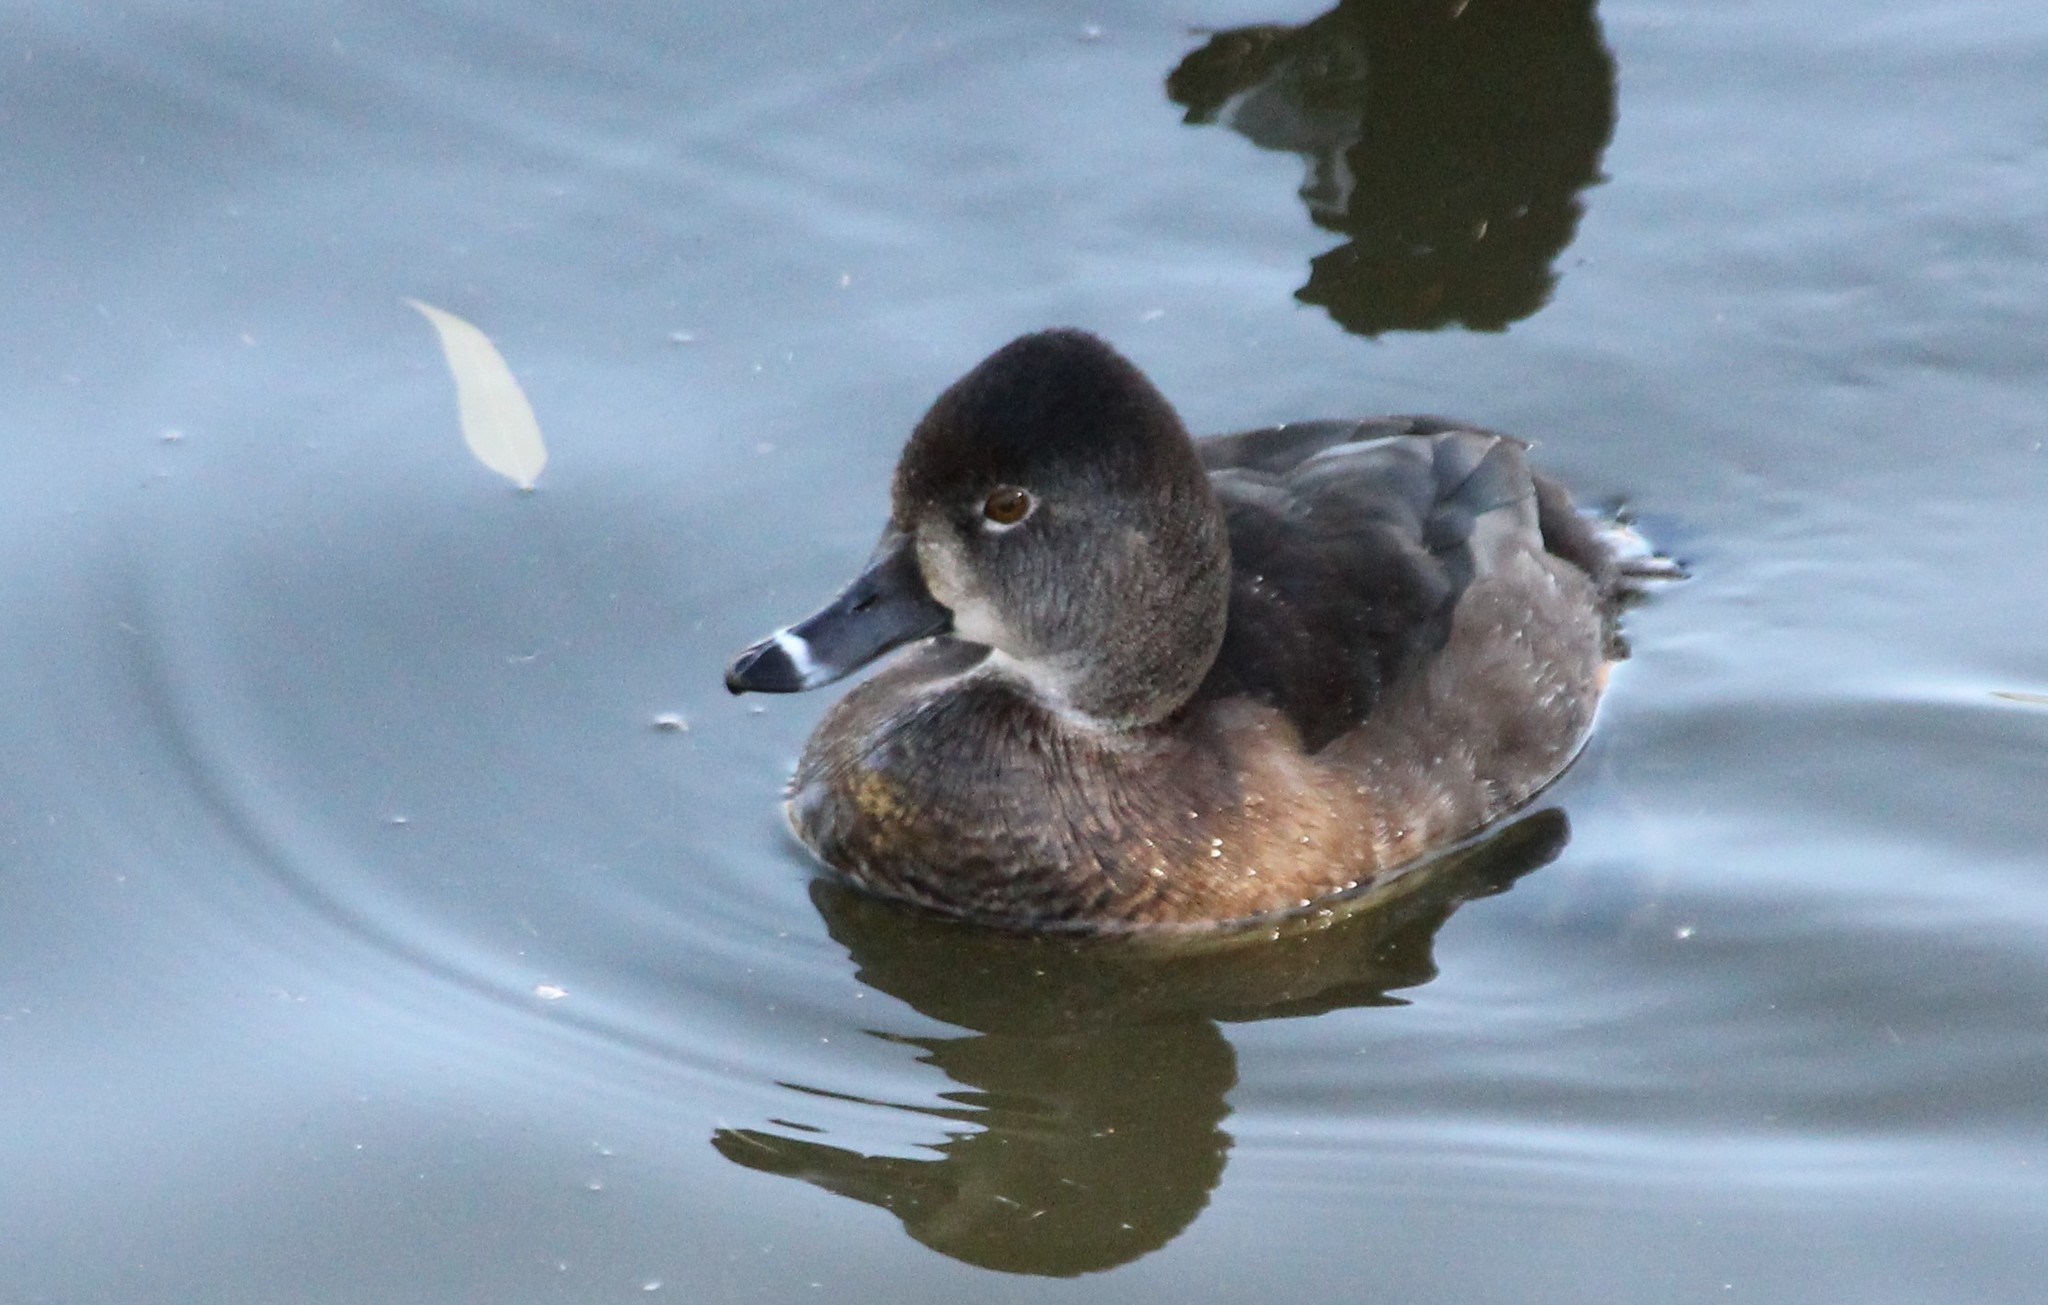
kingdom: Animalia
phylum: Chordata
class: Aves
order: Anseriformes
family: Anatidae
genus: Aythya
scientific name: Aythya collaris
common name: Ring-necked duck
